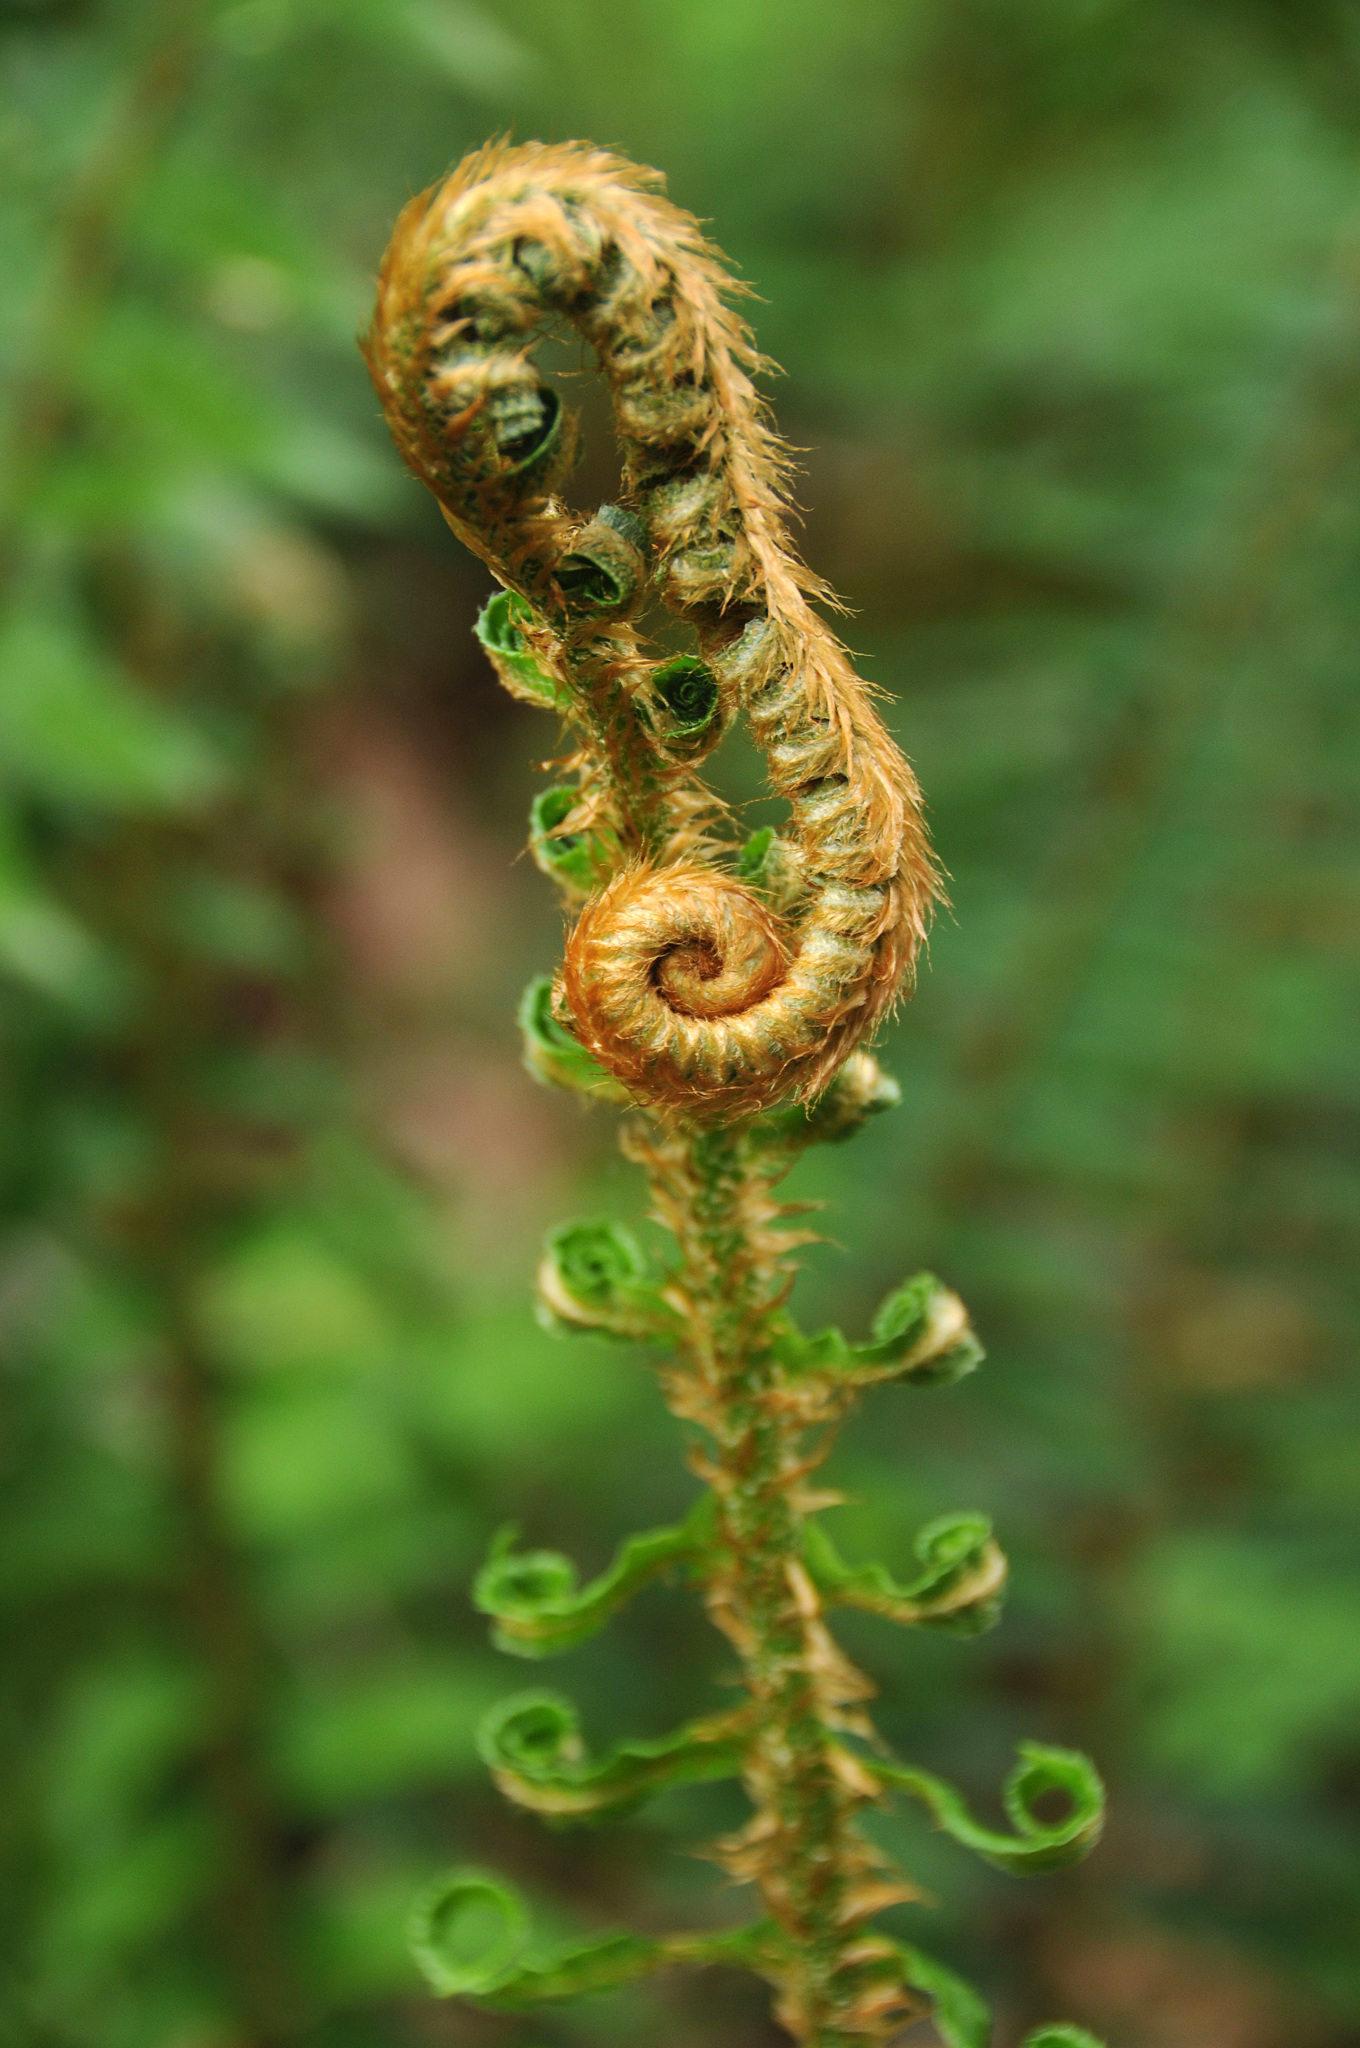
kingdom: Plantae
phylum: Tracheophyta
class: Polypodiopsida
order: Polypodiales
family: Dryopteridaceae
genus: Polystichum
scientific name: Polystichum munitum
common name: Western sword-fern
